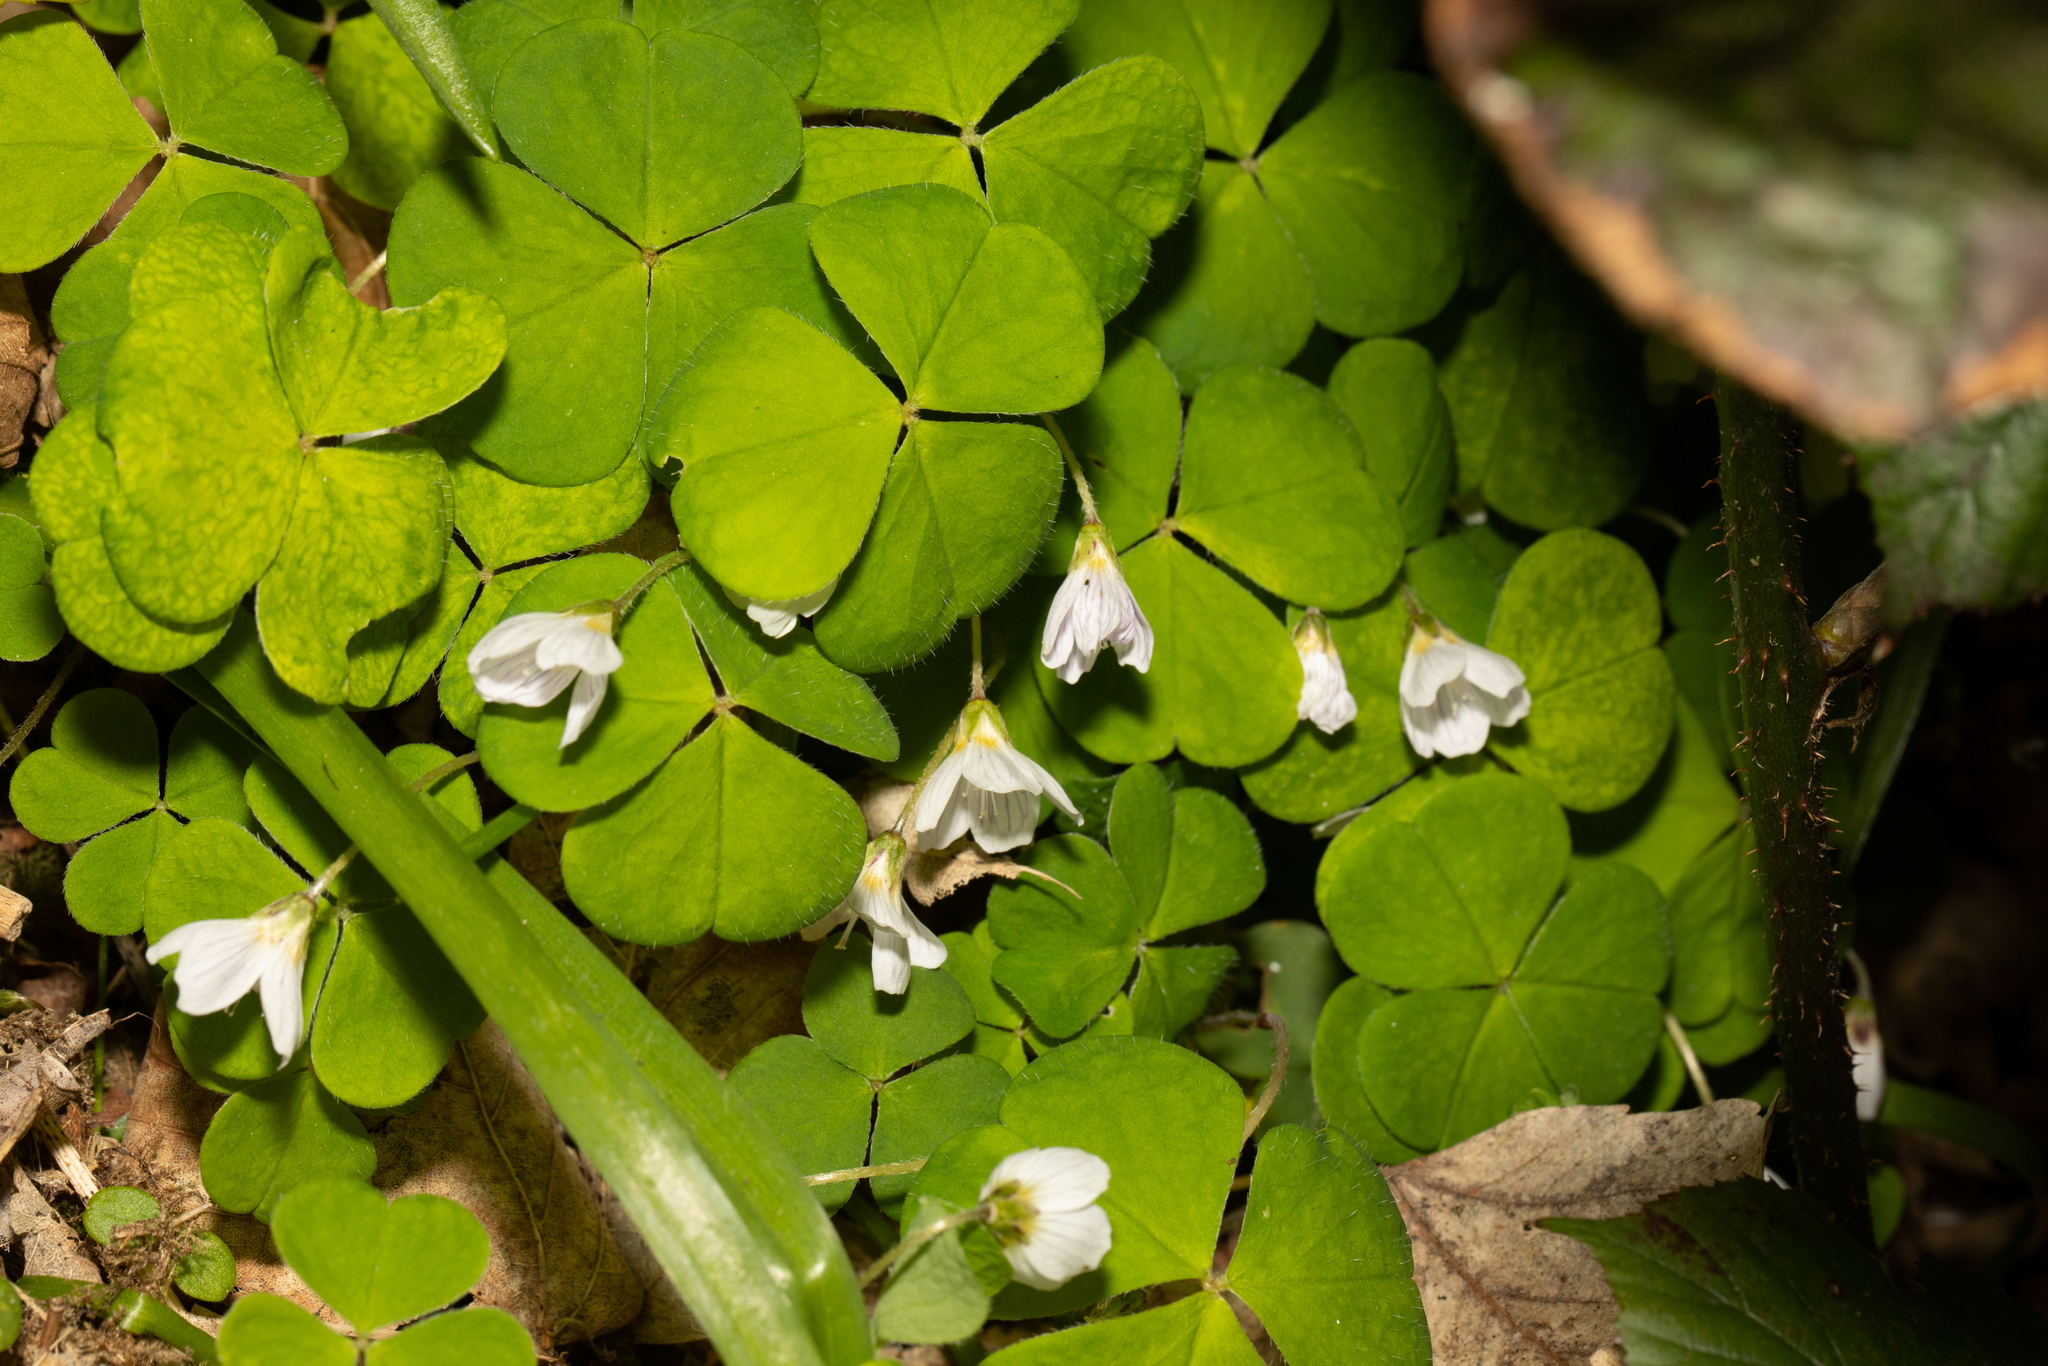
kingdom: Plantae
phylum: Tracheophyta
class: Magnoliopsida
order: Oxalidales
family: Oxalidaceae
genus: Oxalis
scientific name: Oxalis acetosella
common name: Wood-sorrel
